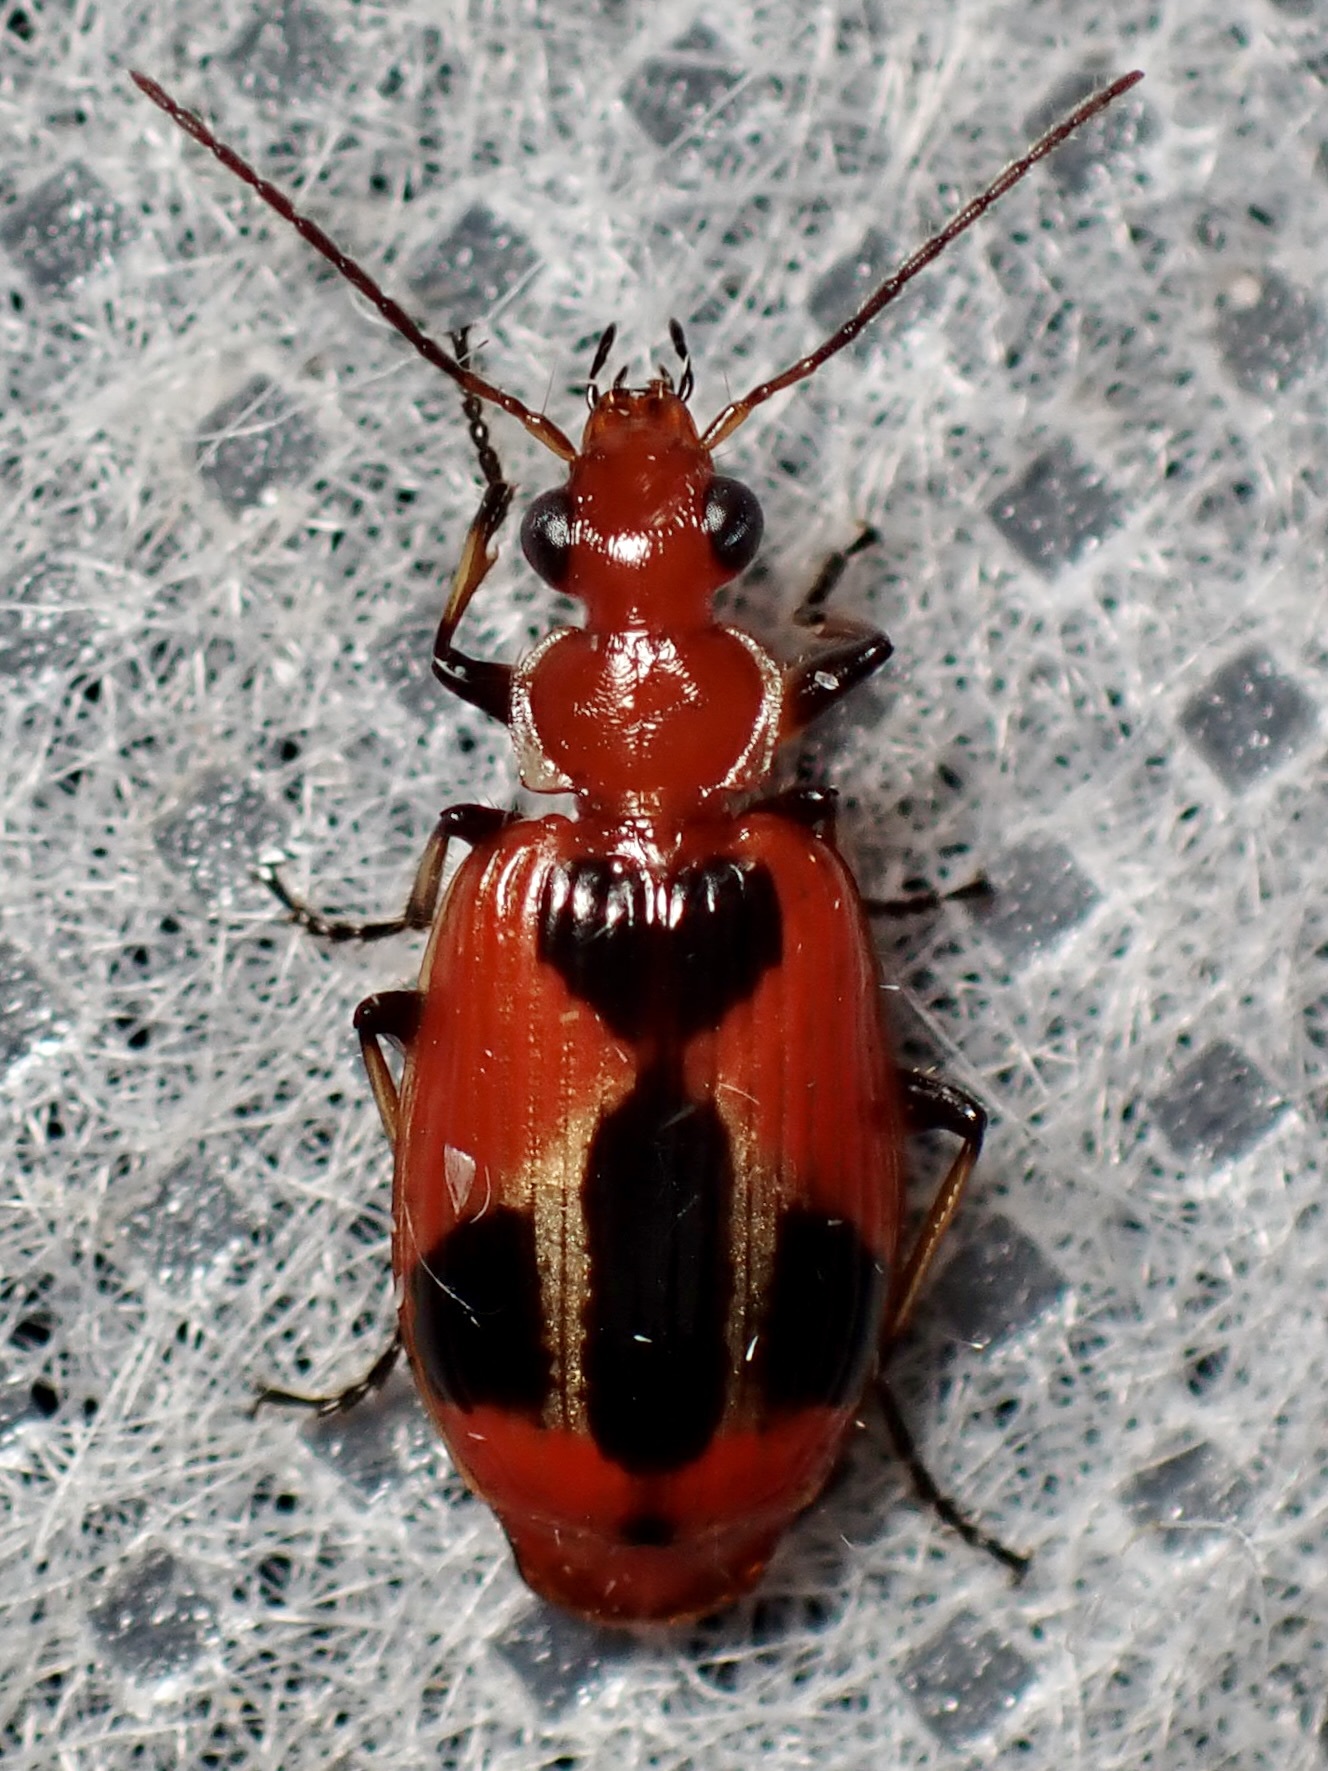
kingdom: Animalia
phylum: Arthropoda
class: Insecta
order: Coleoptera
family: Carabidae
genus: Lebia
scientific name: Lebia histrionica
